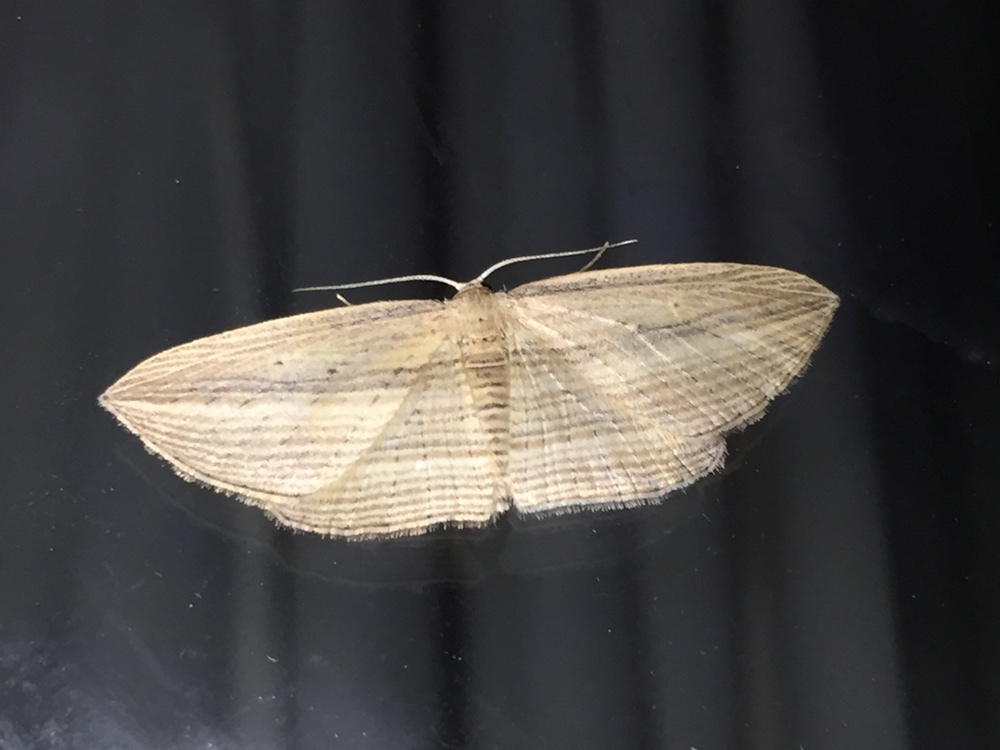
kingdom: Animalia
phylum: Arthropoda
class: Insecta
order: Lepidoptera
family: Geometridae
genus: Epiphryne
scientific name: Epiphryne verriculata
